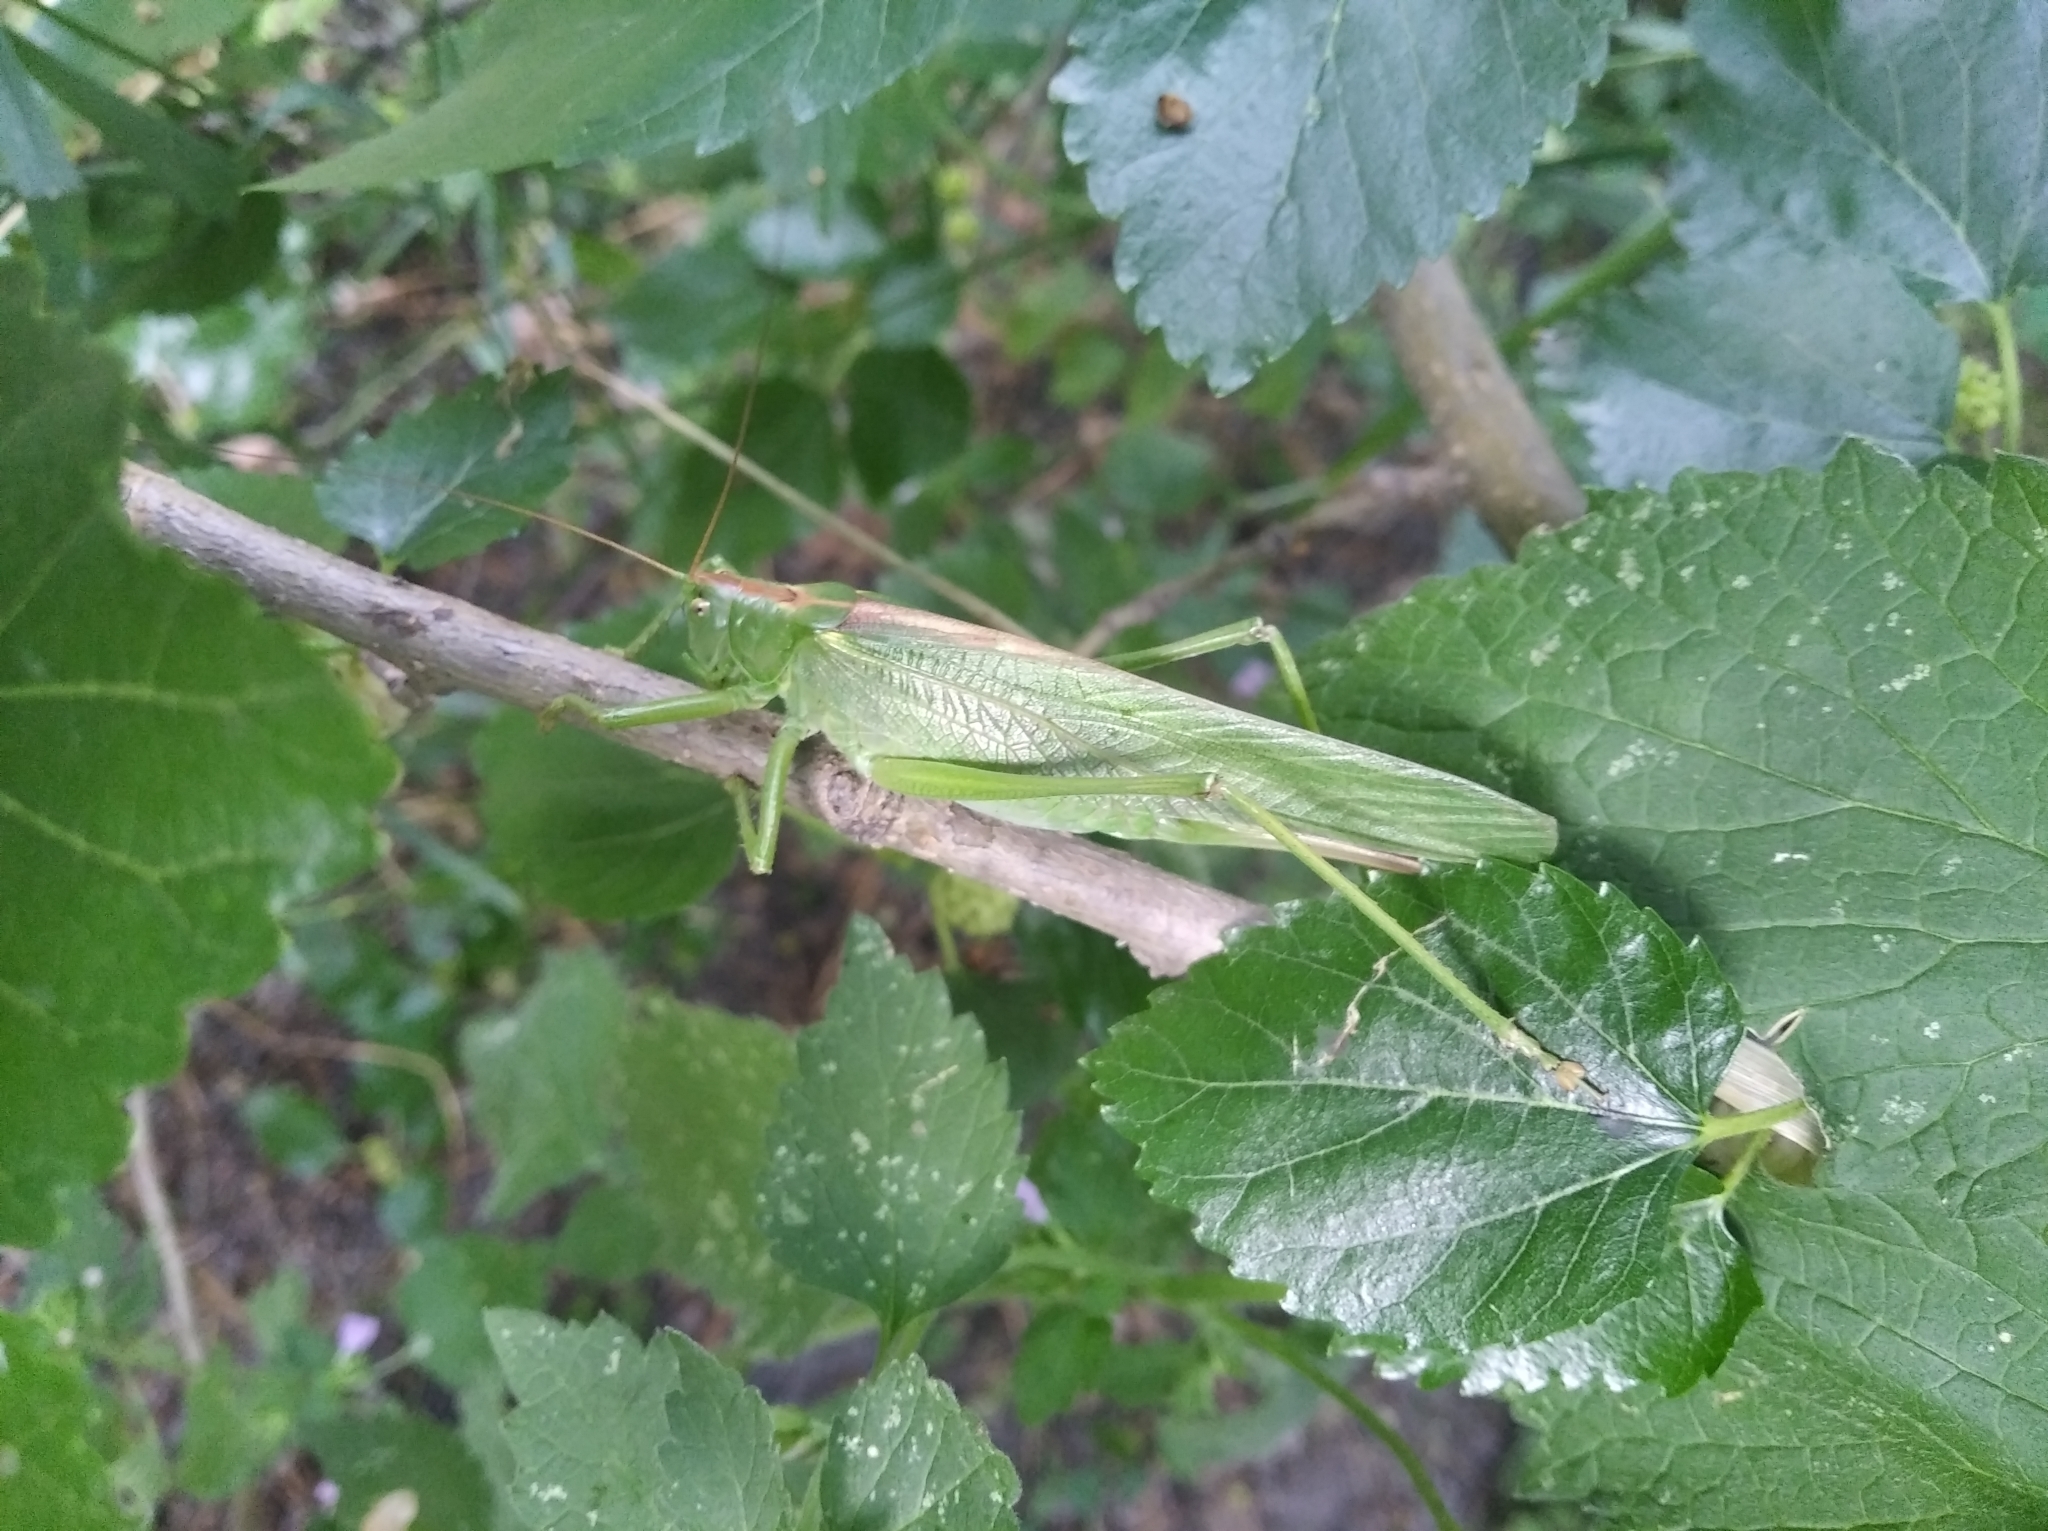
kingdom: Animalia
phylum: Arthropoda
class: Insecta
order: Orthoptera
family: Tettigoniidae
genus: Tettigonia
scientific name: Tettigonia viridissima
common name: Great green bush-cricket
